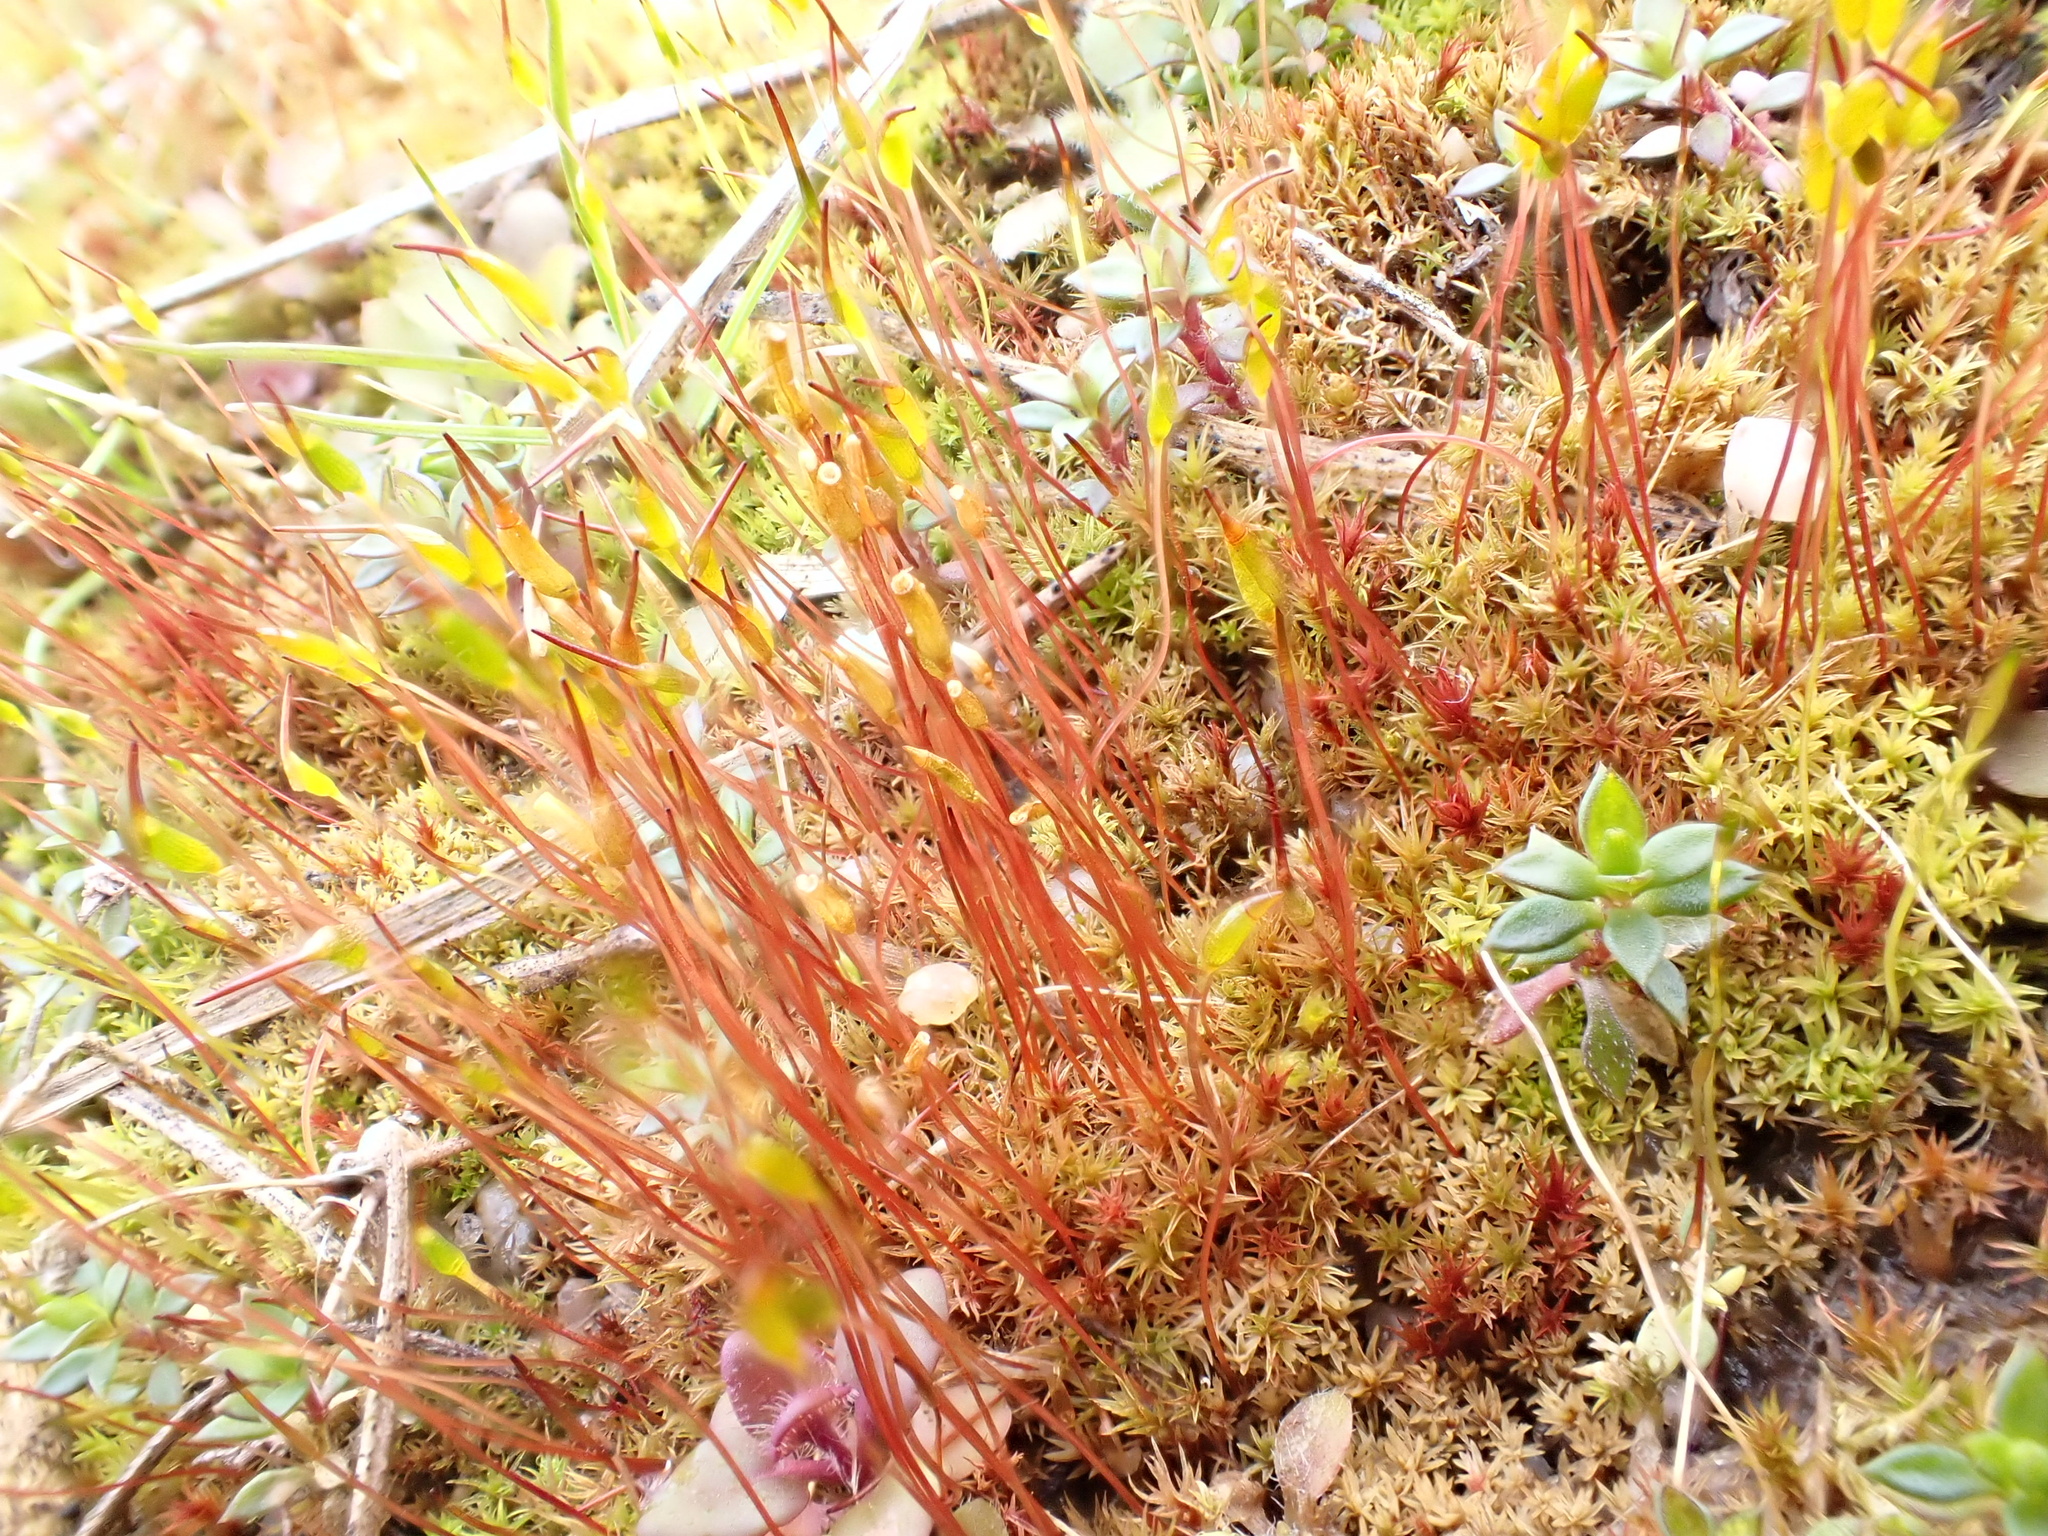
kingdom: Plantae
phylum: Bryophyta
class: Bryopsida
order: Dicranales
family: Ditrichaceae
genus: Ceratodon
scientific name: Ceratodon purpureus
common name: Redshank
